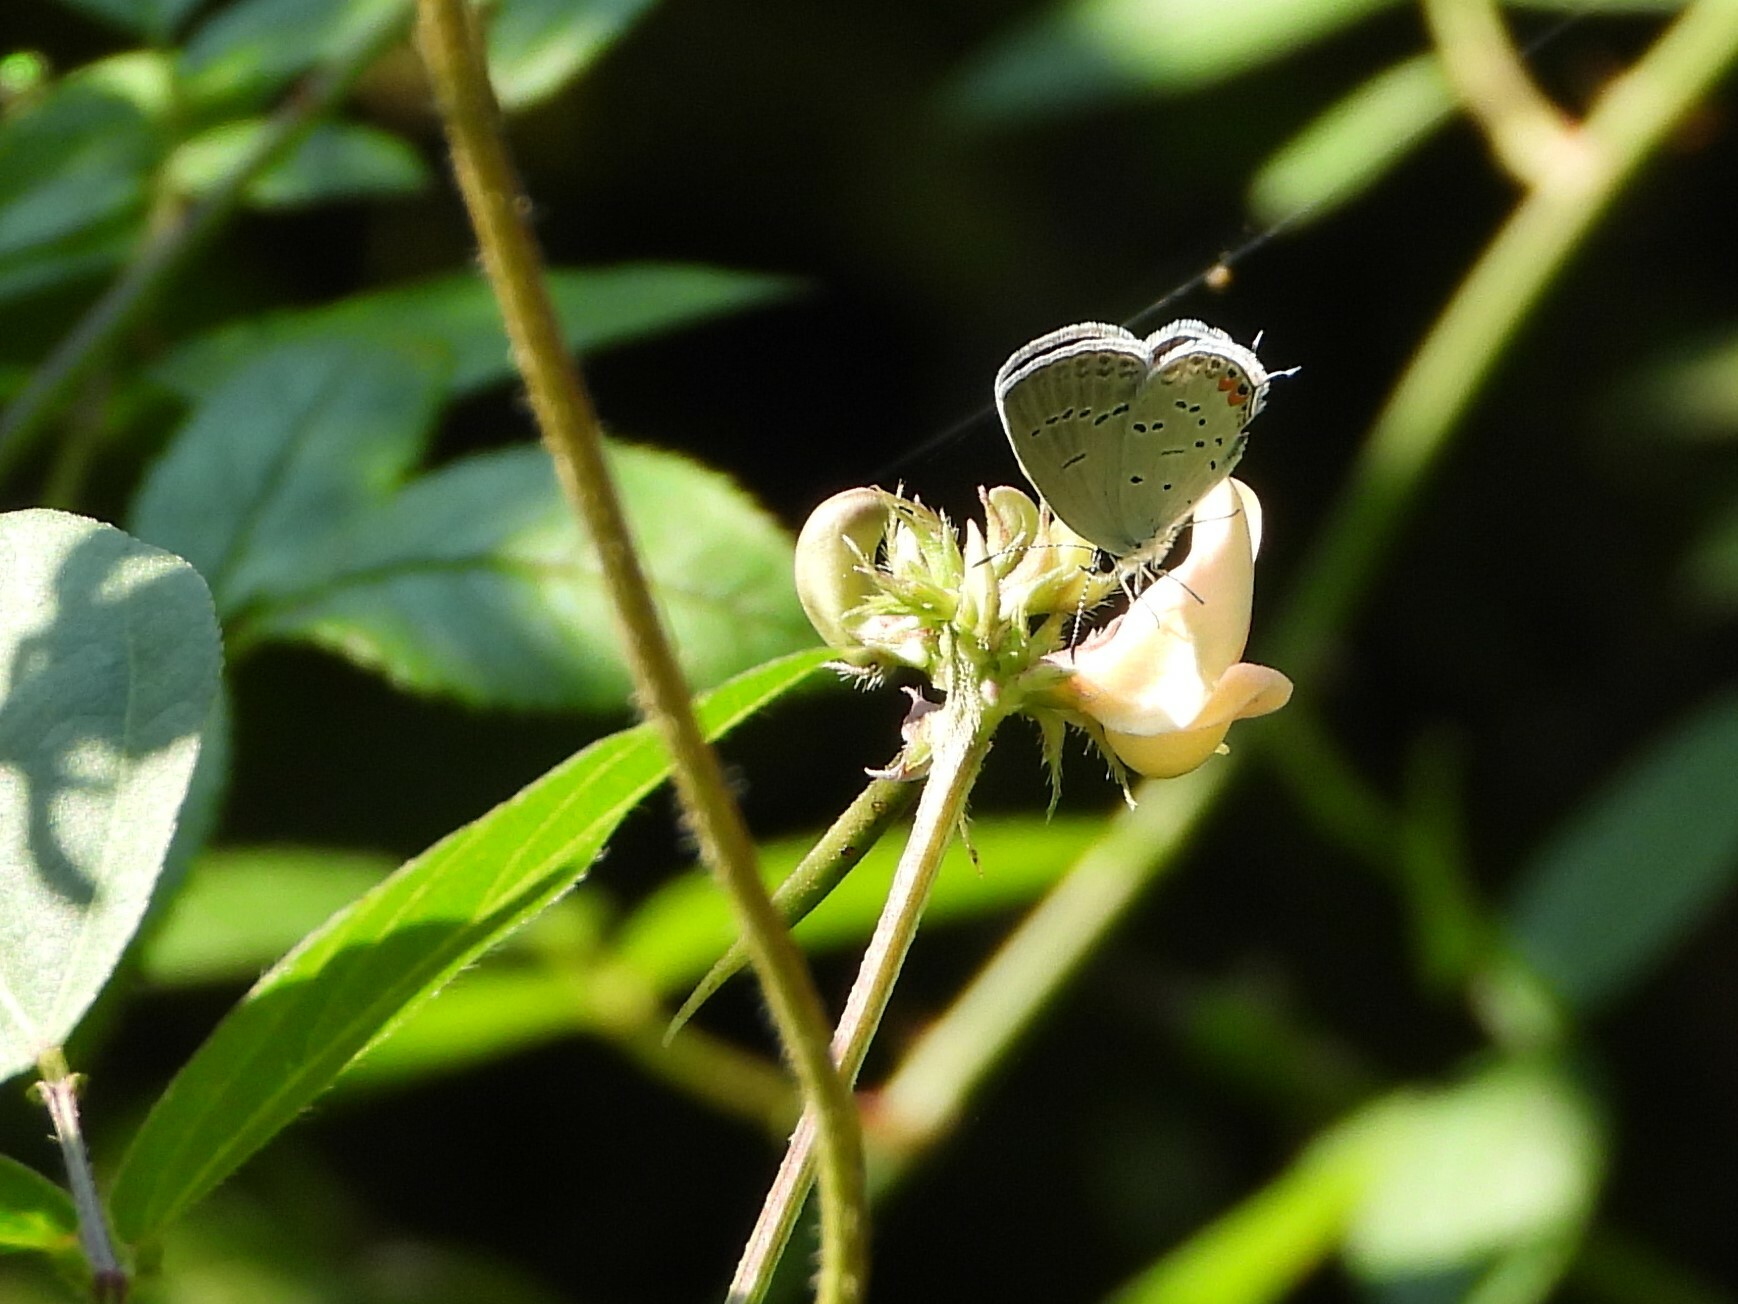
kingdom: Animalia
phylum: Arthropoda
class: Insecta
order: Lepidoptera
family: Lycaenidae
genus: Elkalyce
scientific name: Elkalyce comyntas
